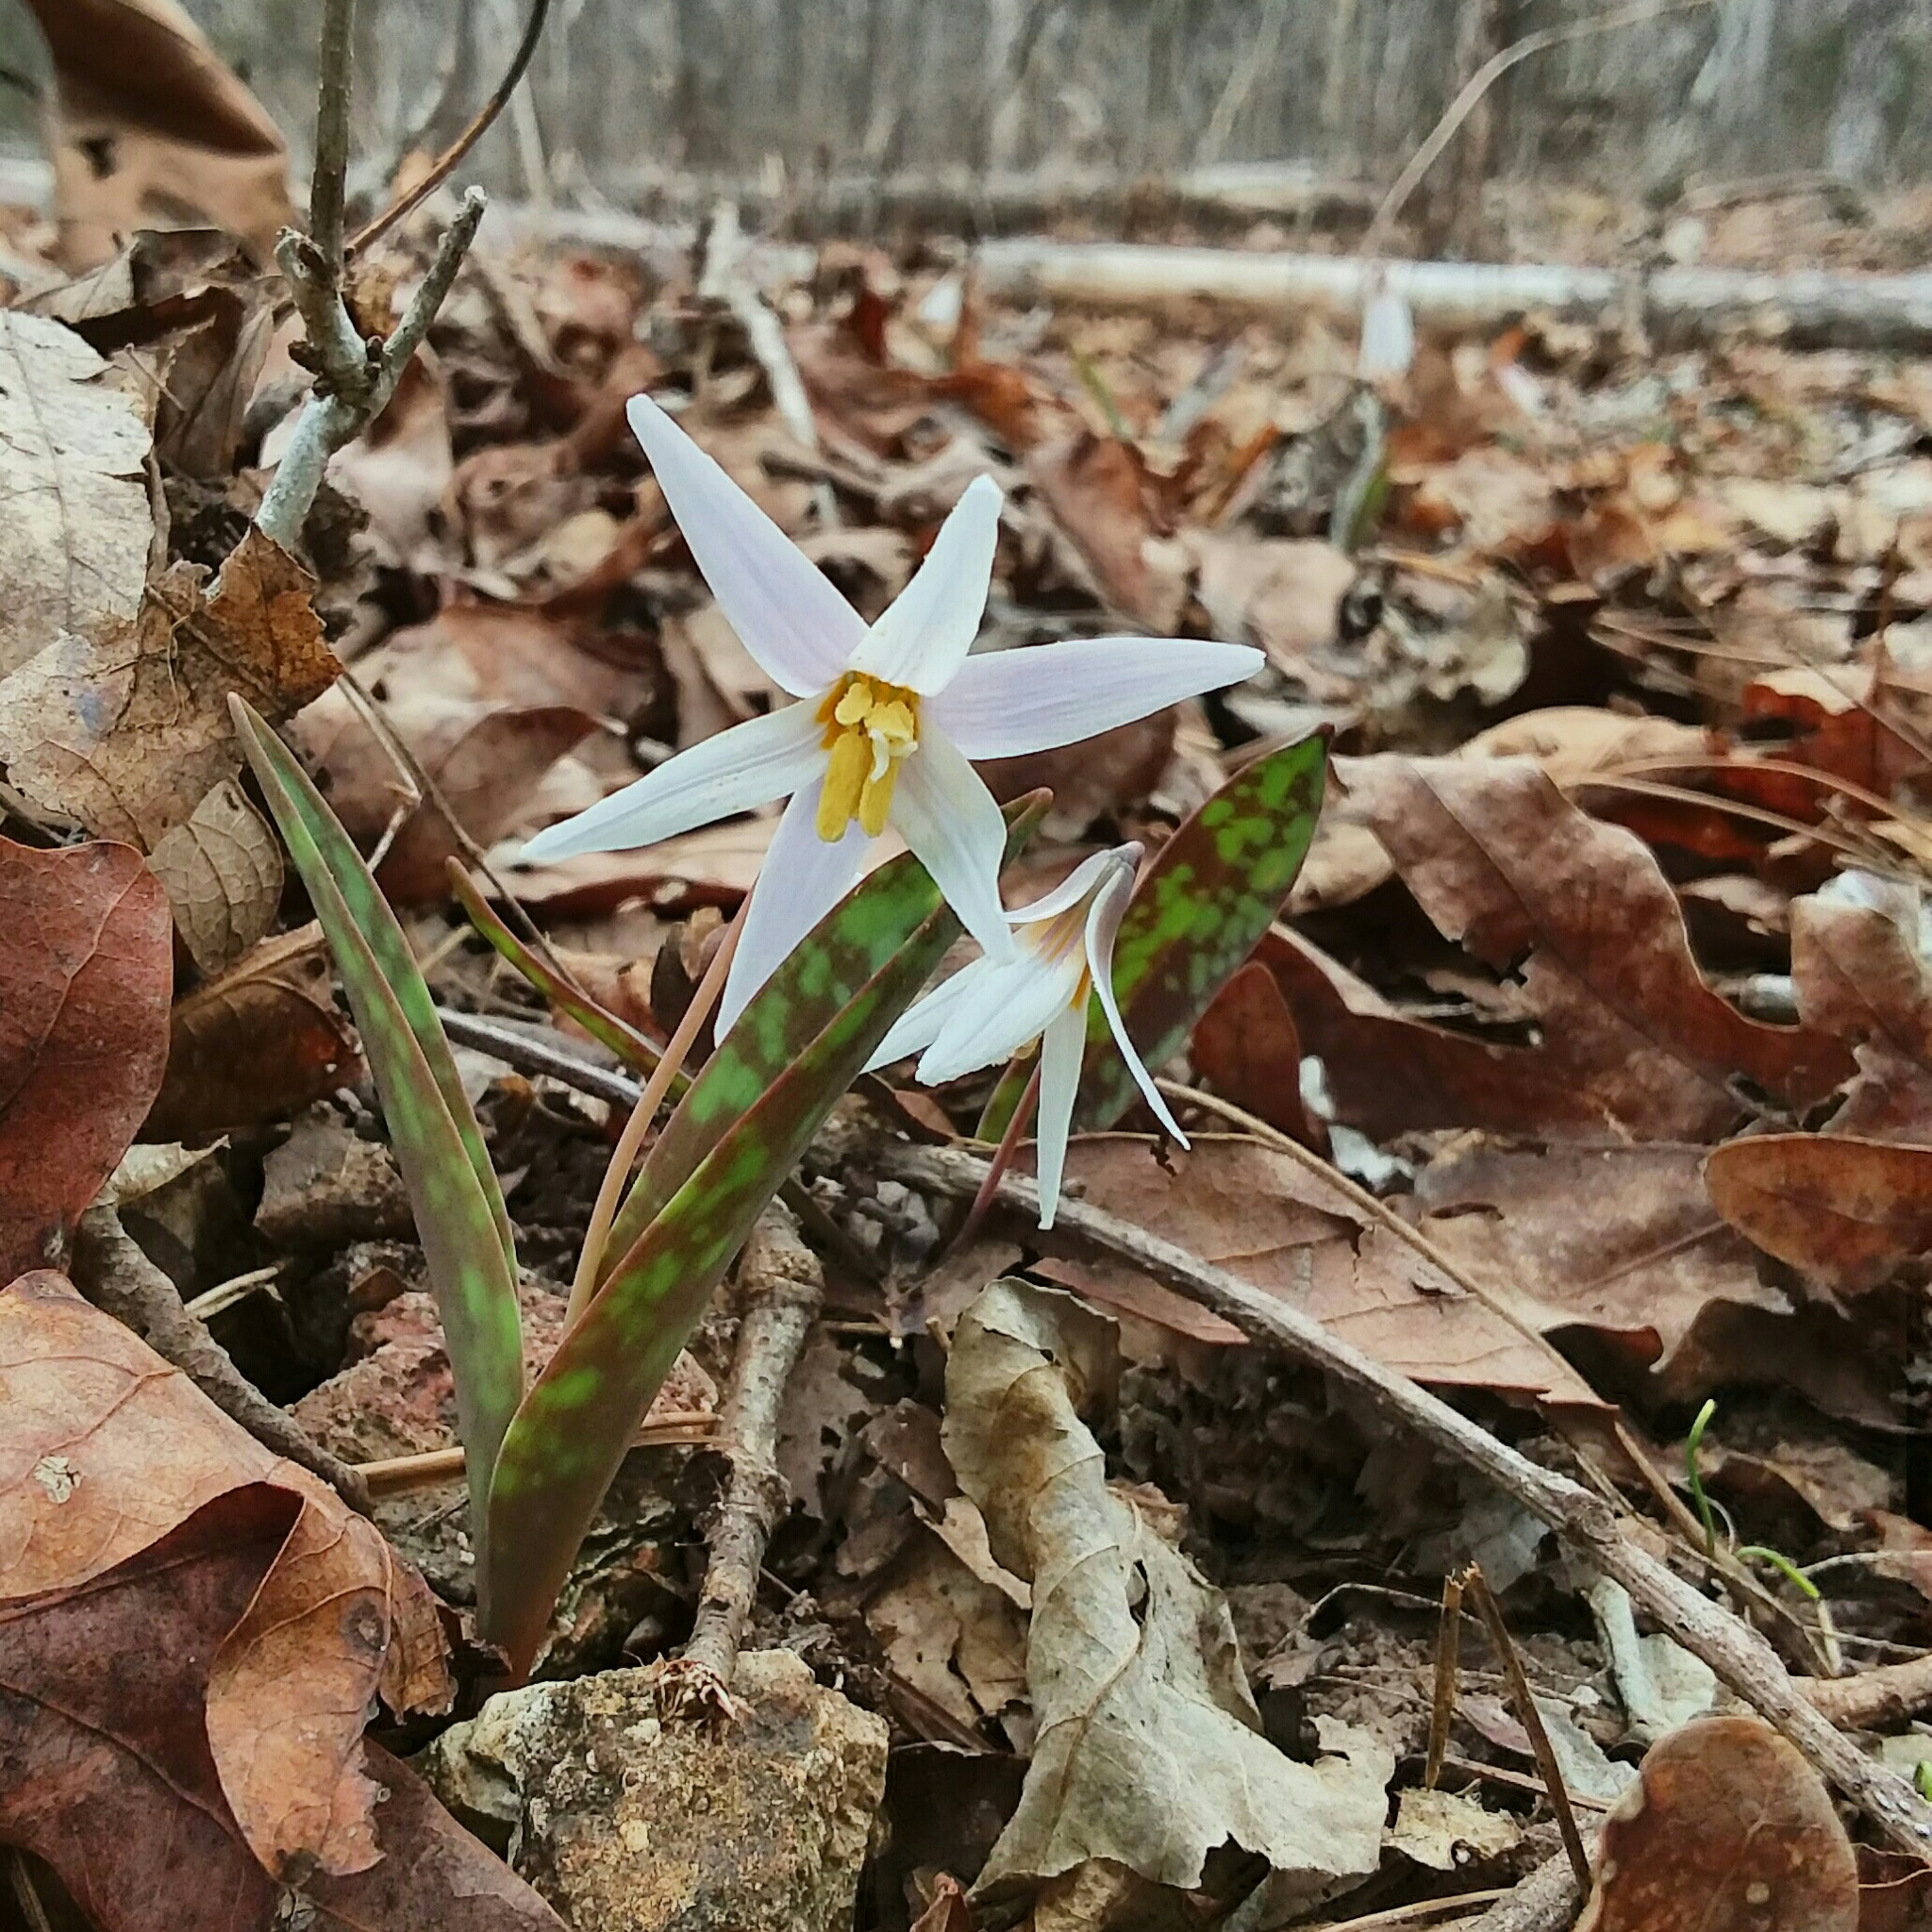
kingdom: Plantae
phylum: Tracheophyta
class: Liliopsida
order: Liliales
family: Liliaceae
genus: Erythronium
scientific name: Erythronium albidum
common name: White trout-lily
